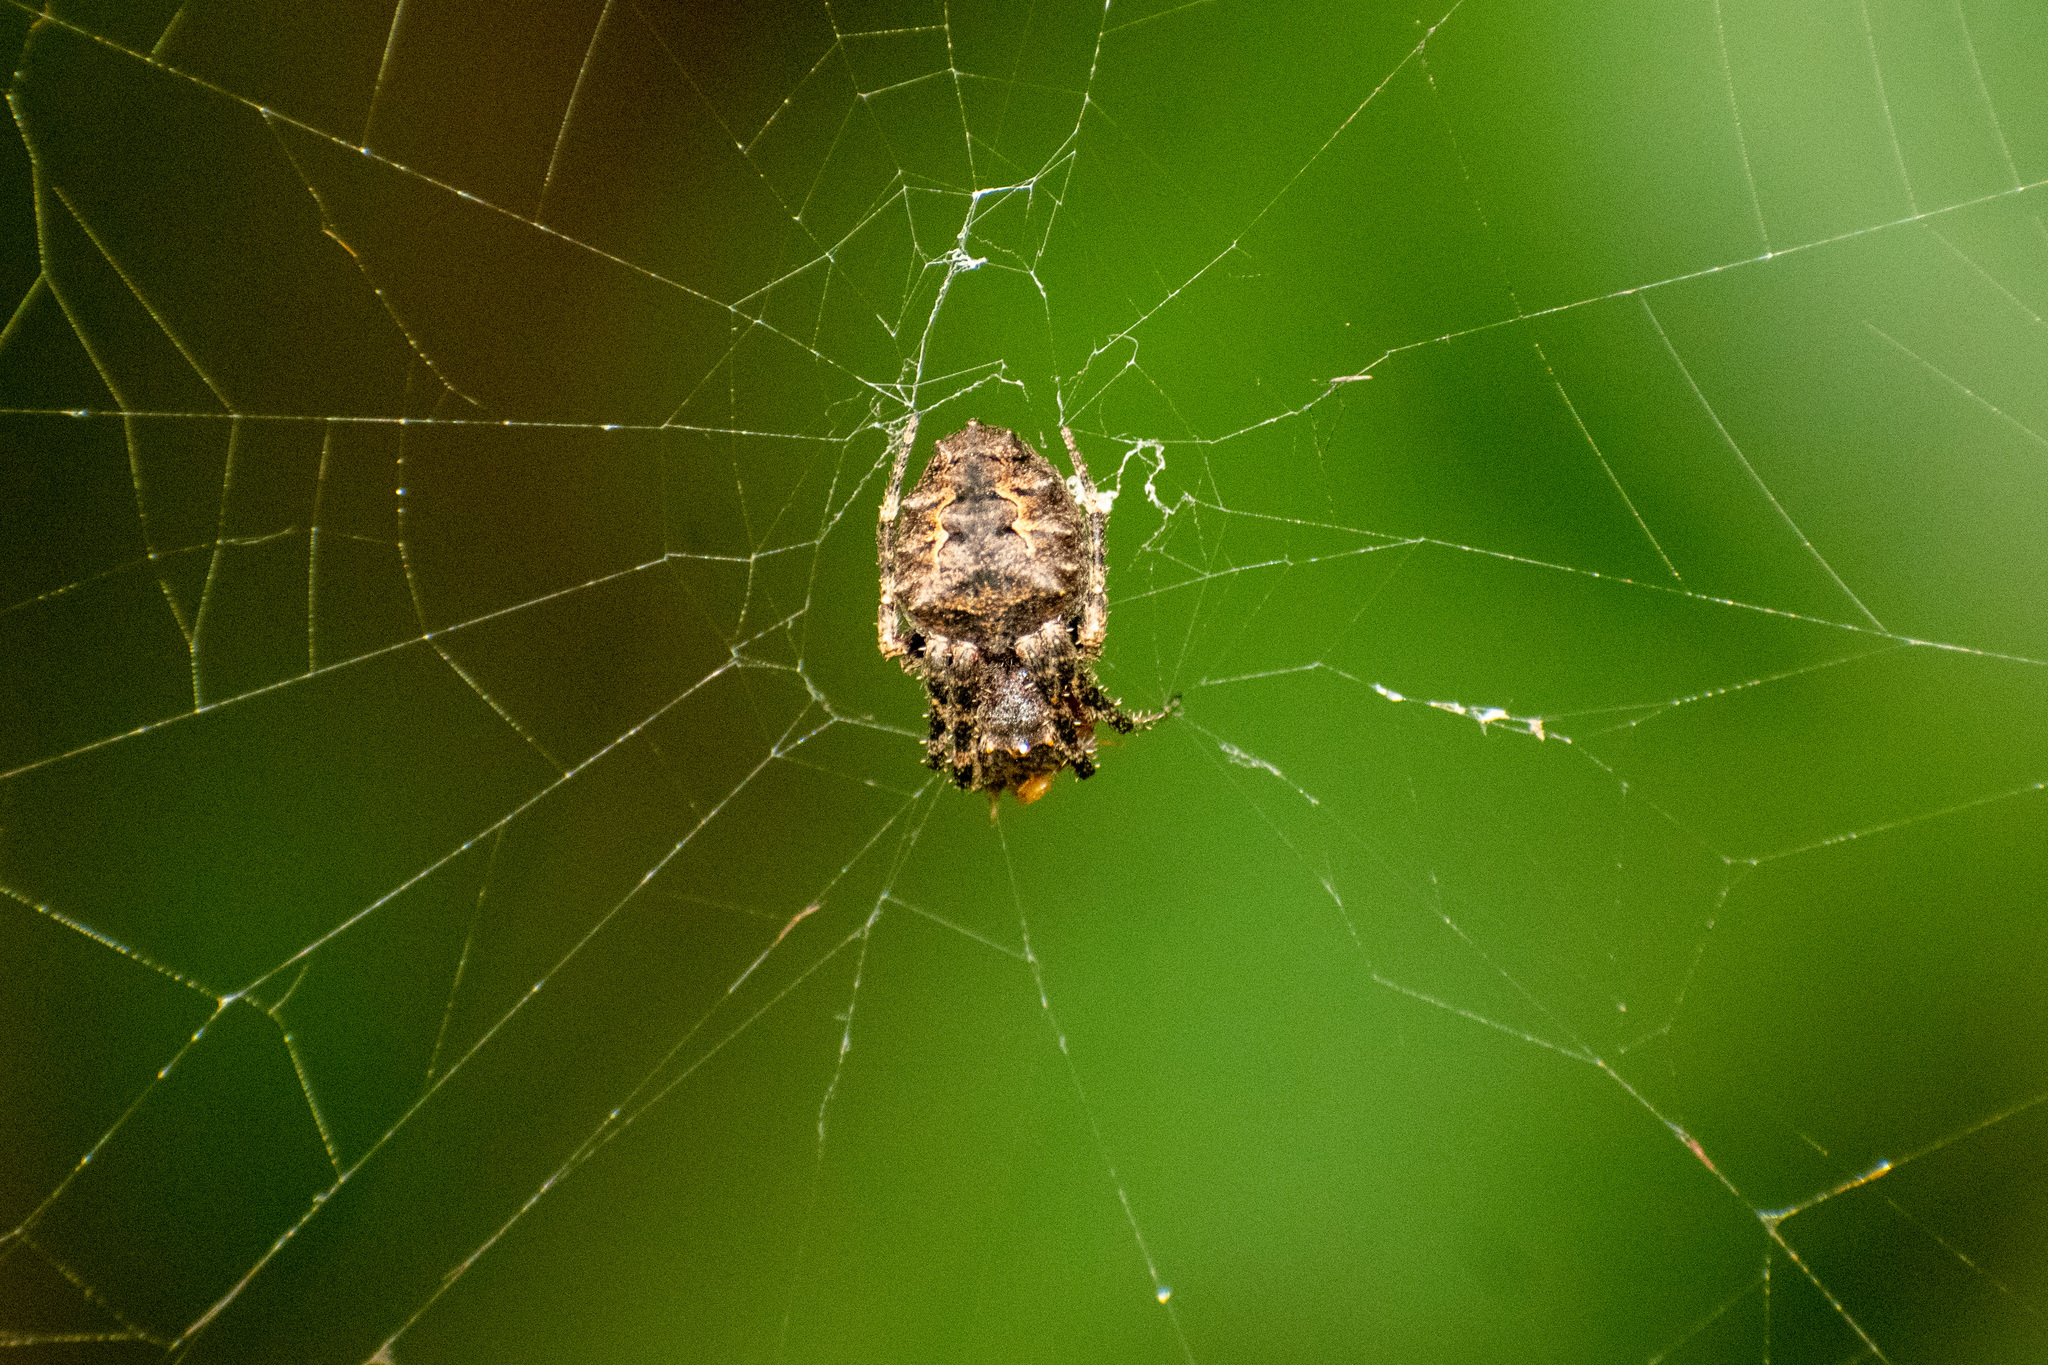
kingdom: Animalia
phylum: Arthropoda
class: Arachnida
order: Araneae
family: Araneidae
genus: Parawixia
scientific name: Parawixia audax
